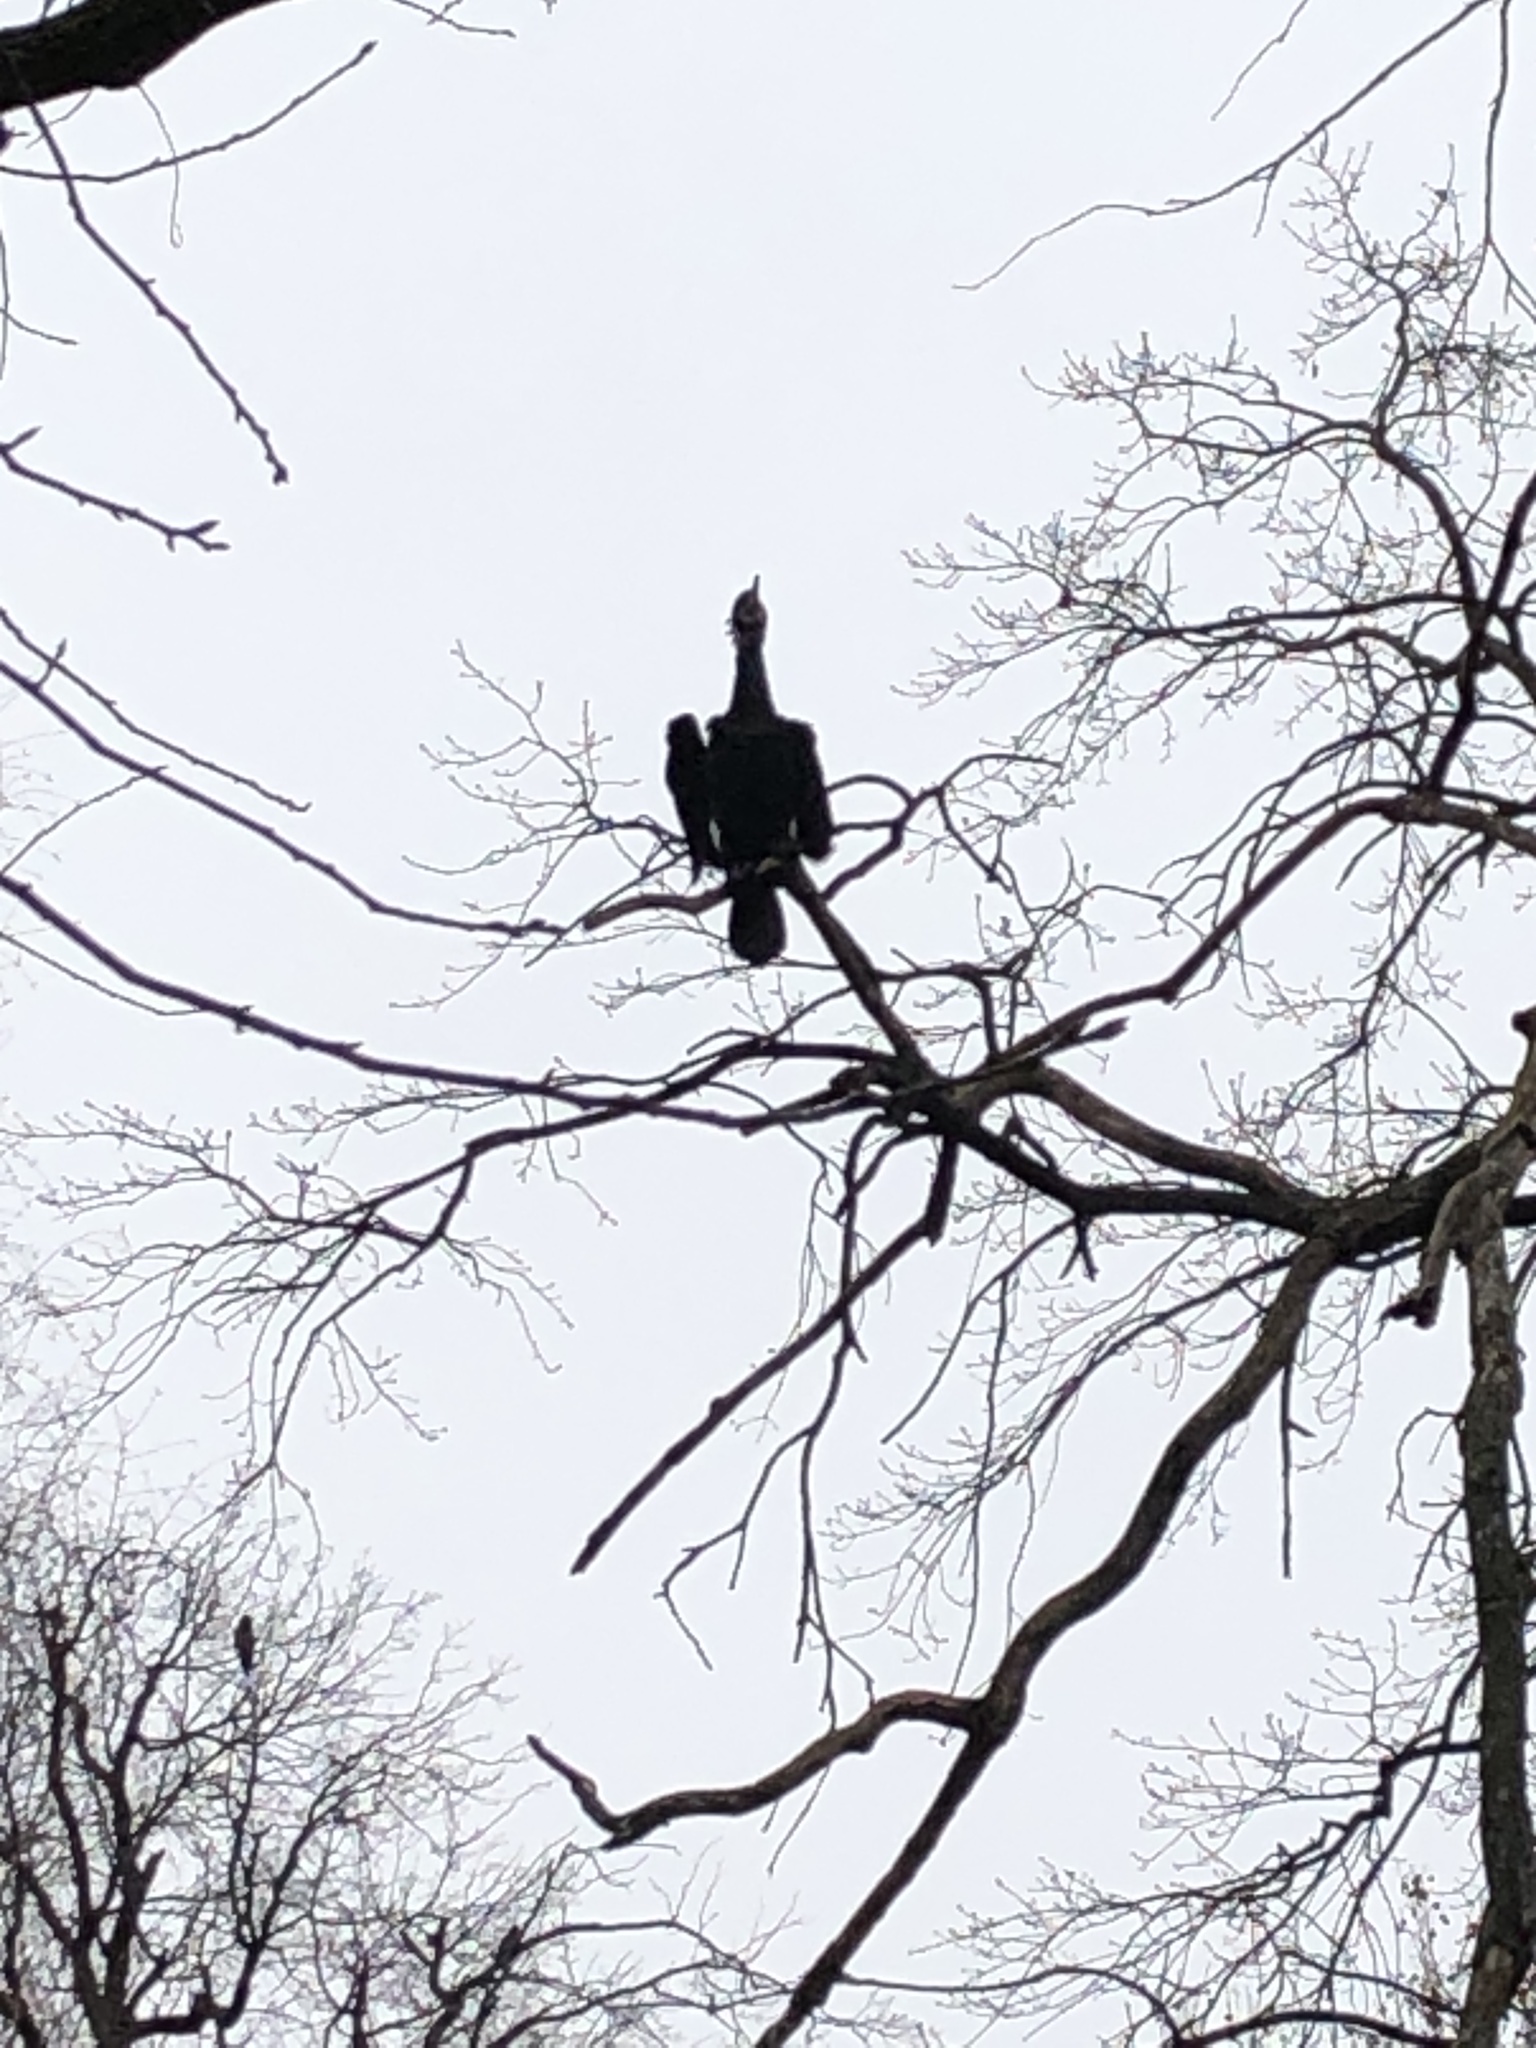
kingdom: Animalia
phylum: Chordata
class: Aves
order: Suliformes
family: Phalacrocoracidae
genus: Phalacrocorax
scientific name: Phalacrocorax carbo
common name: Great cormorant
